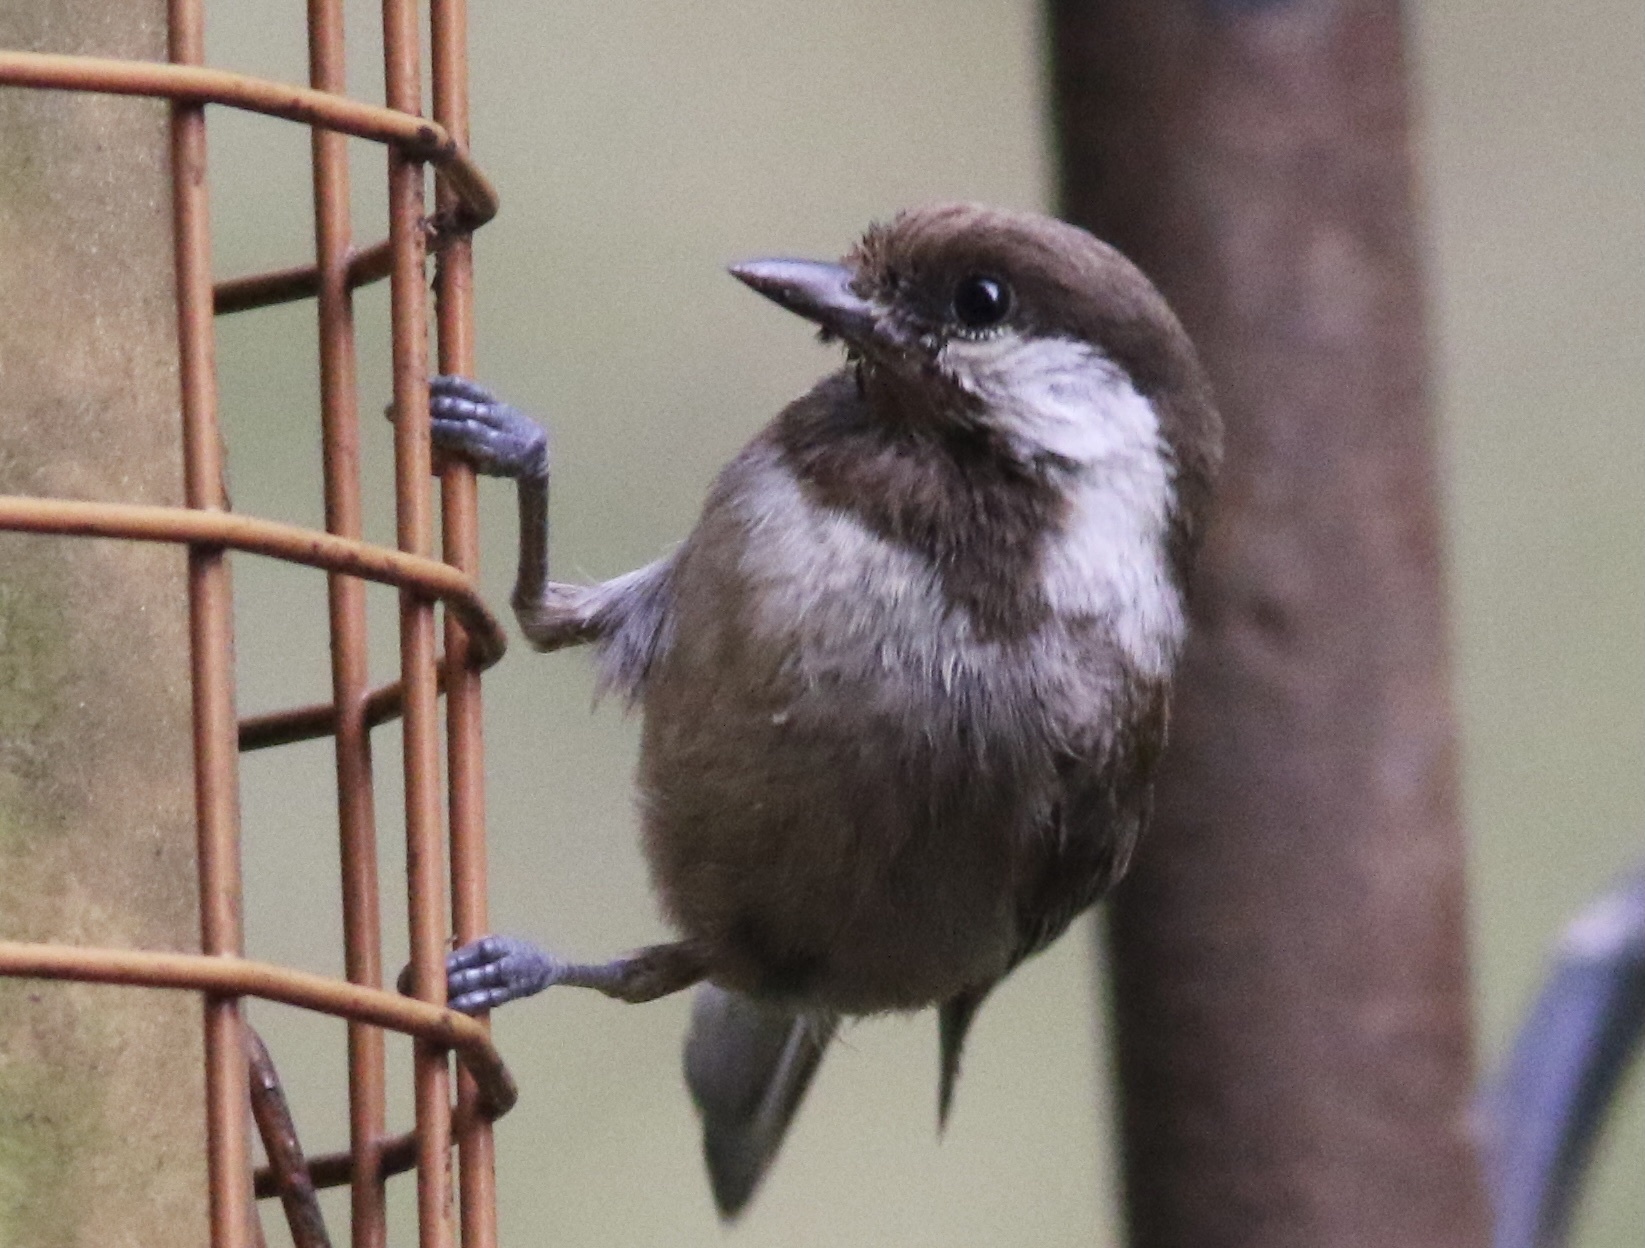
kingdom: Animalia
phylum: Chordata
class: Aves
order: Passeriformes
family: Paridae
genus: Poecile
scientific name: Poecile rufescens
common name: Chestnut-backed chickadee
